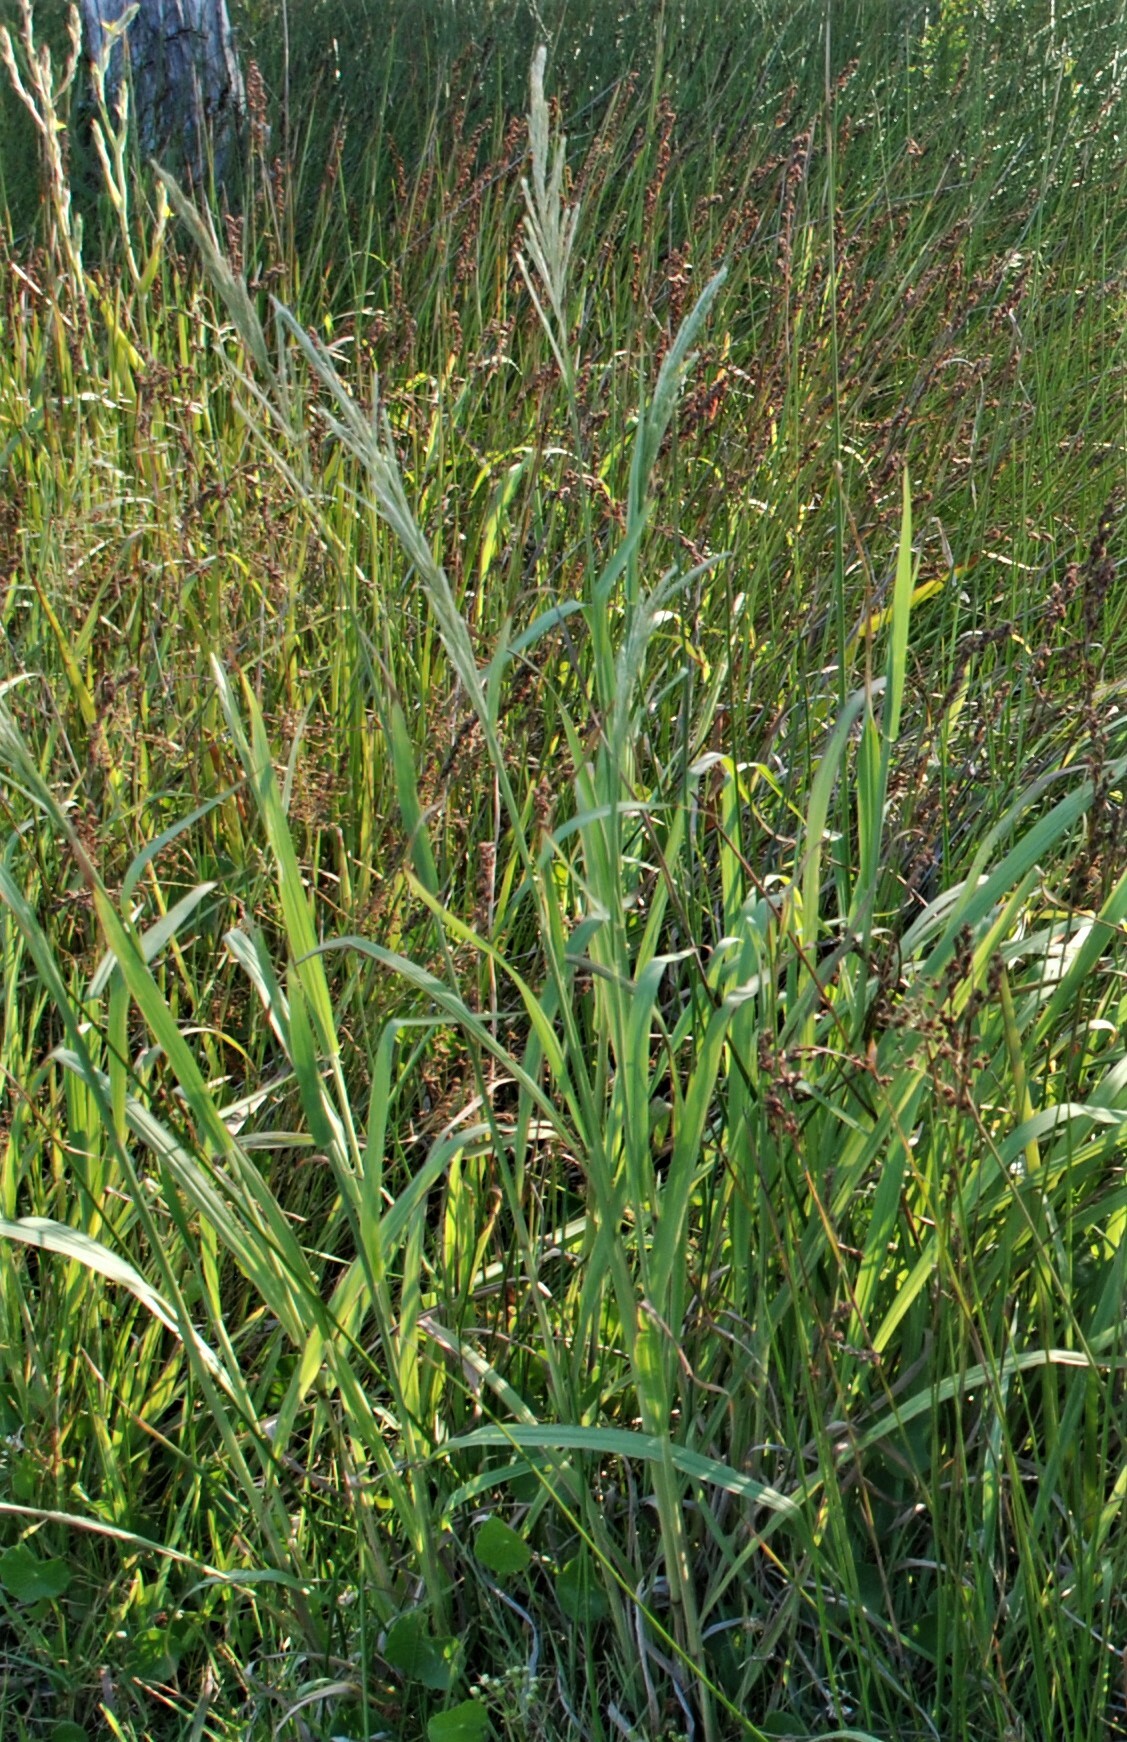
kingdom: Plantae
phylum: Tracheophyta
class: Liliopsida
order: Poales
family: Poaceae
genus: Paspalum
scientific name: Paspalum urvillei
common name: Vasey's grass
